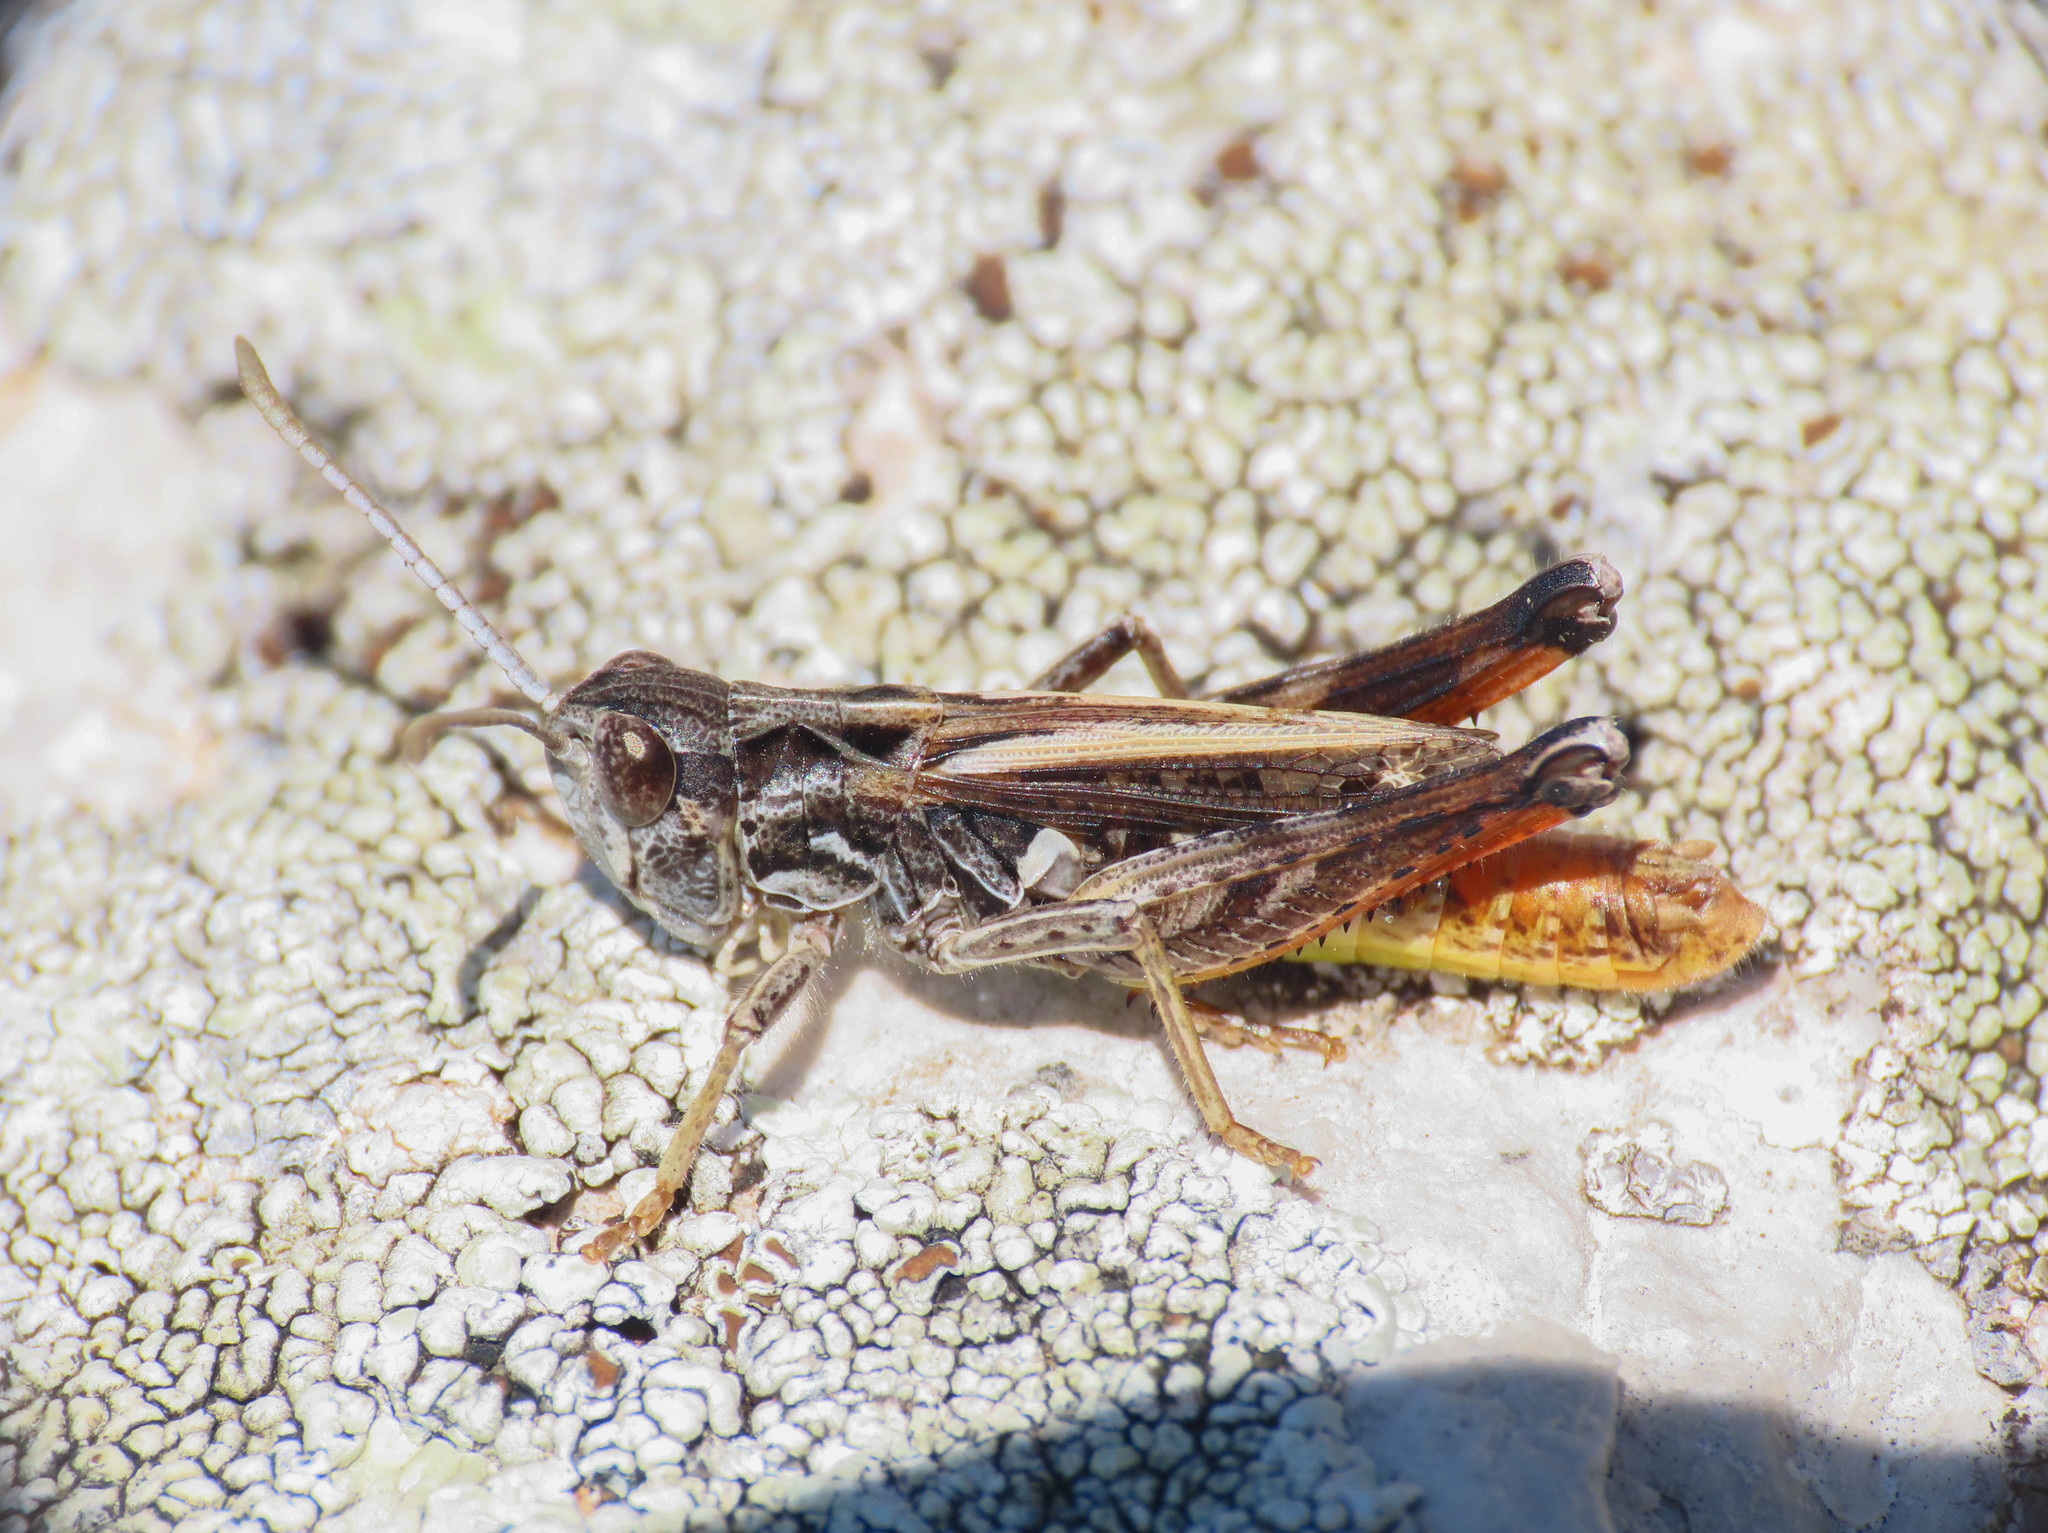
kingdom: Animalia
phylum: Arthropoda
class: Insecta
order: Orthoptera
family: Acrididae
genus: Italohippus
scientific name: Italohippus monticola
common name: Gran sasso italian grasshopper
